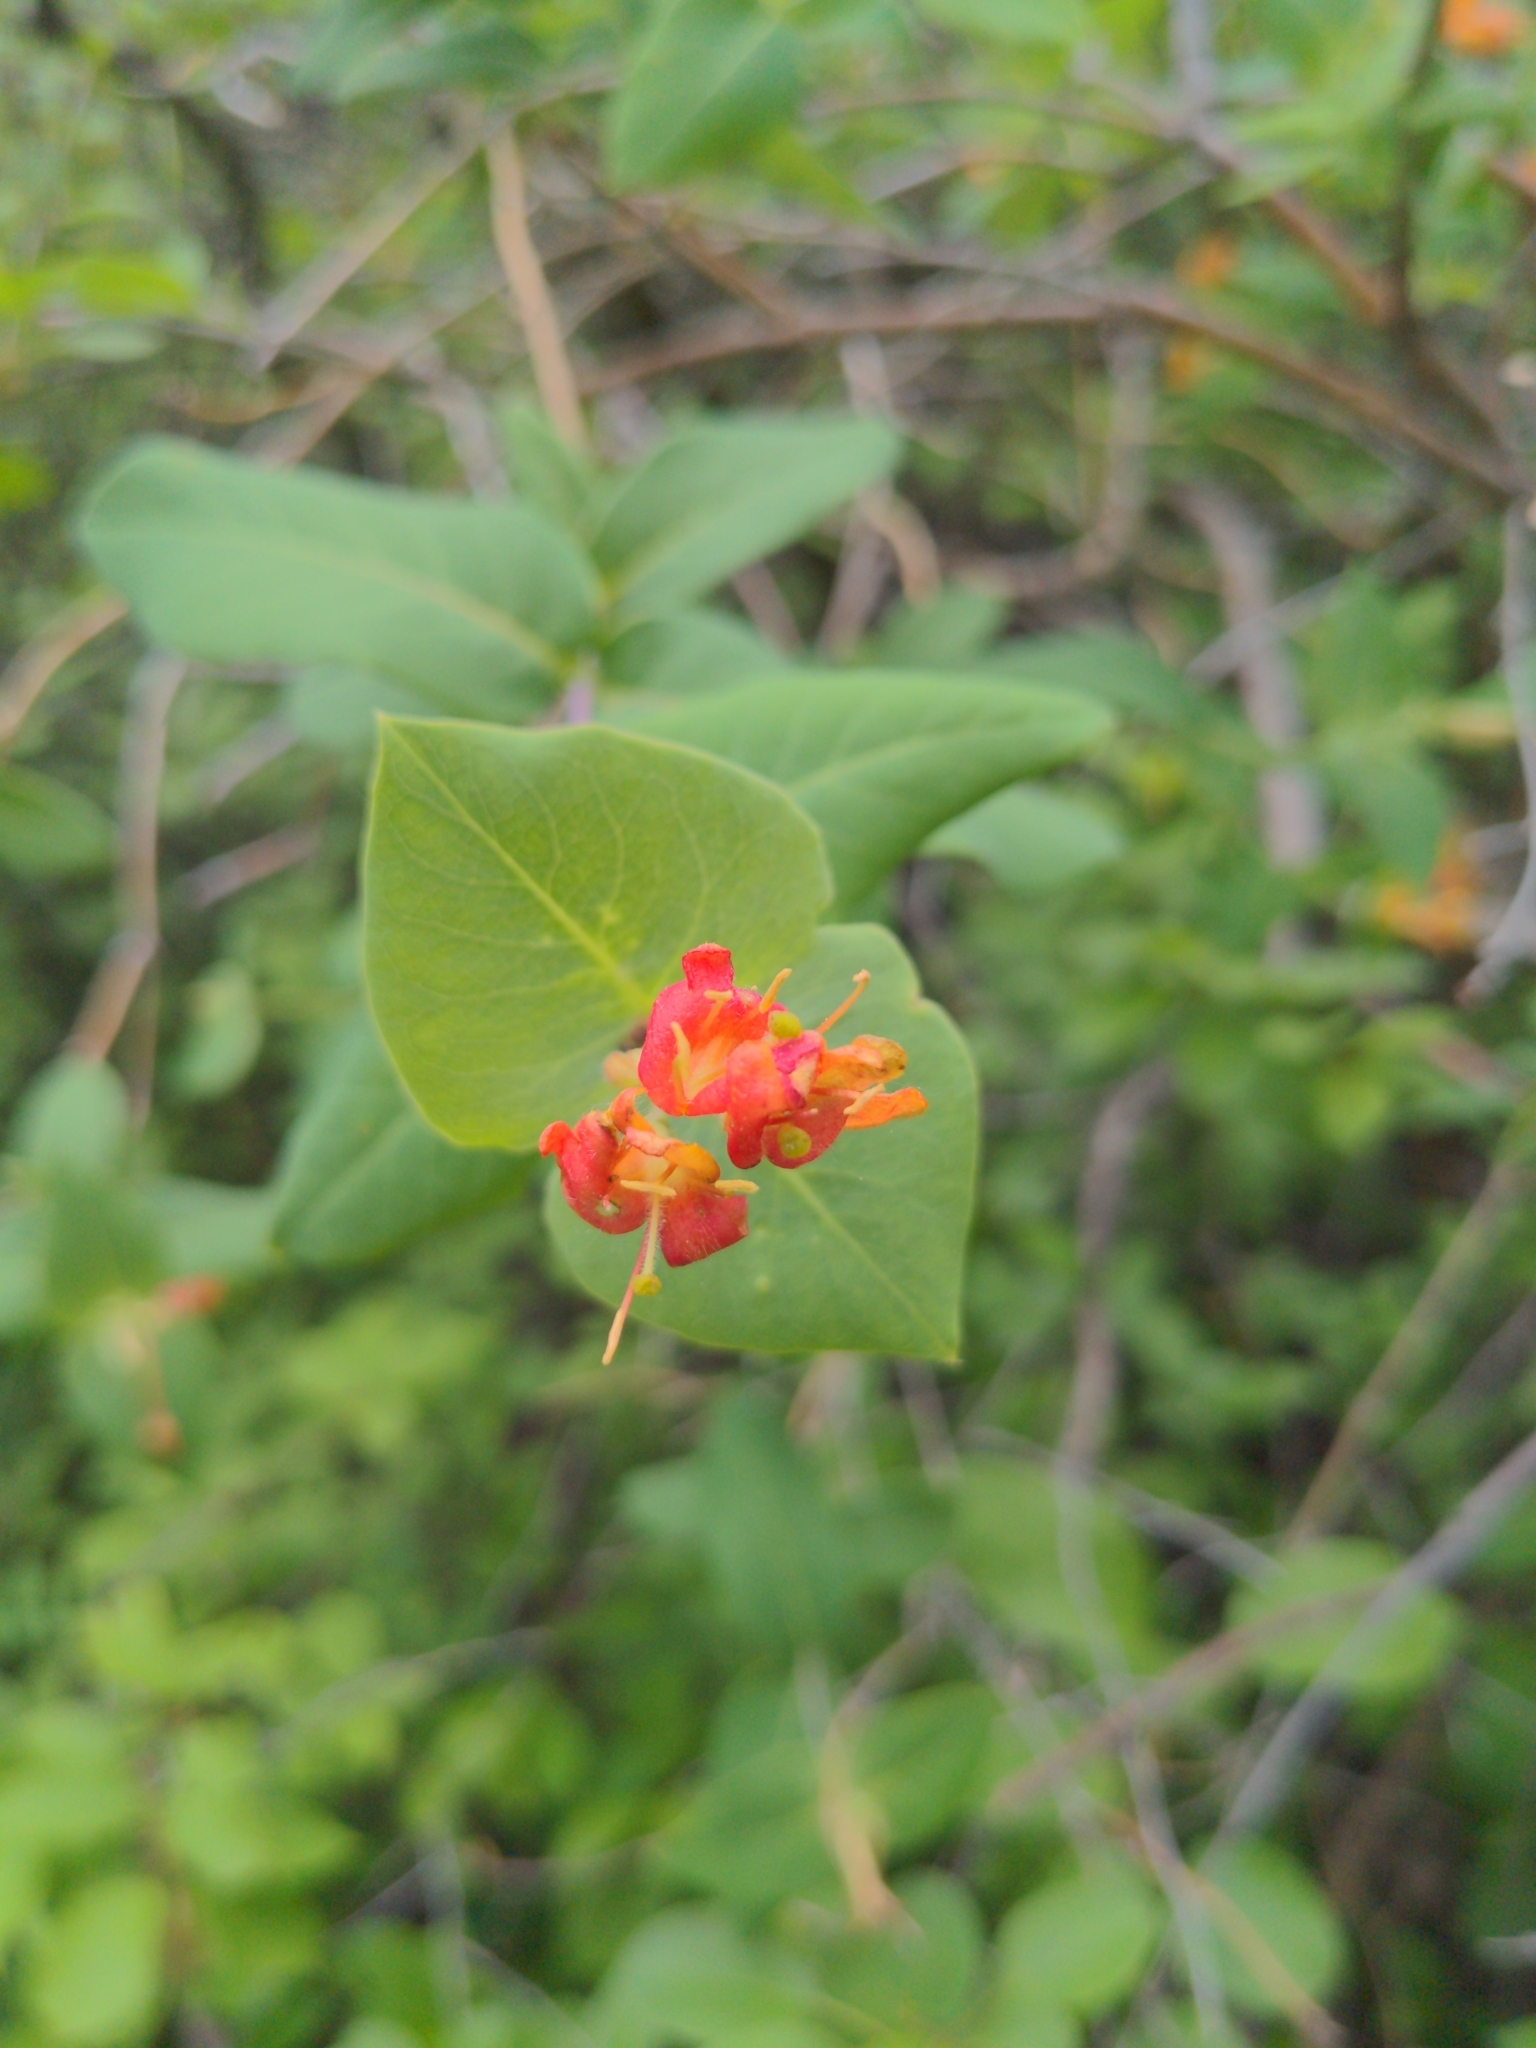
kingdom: Plantae
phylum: Tracheophyta
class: Magnoliopsida
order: Dipsacales
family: Caprifoliaceae
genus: Lonicera
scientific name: Lonicera dioica
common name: Limber honeysuckle
